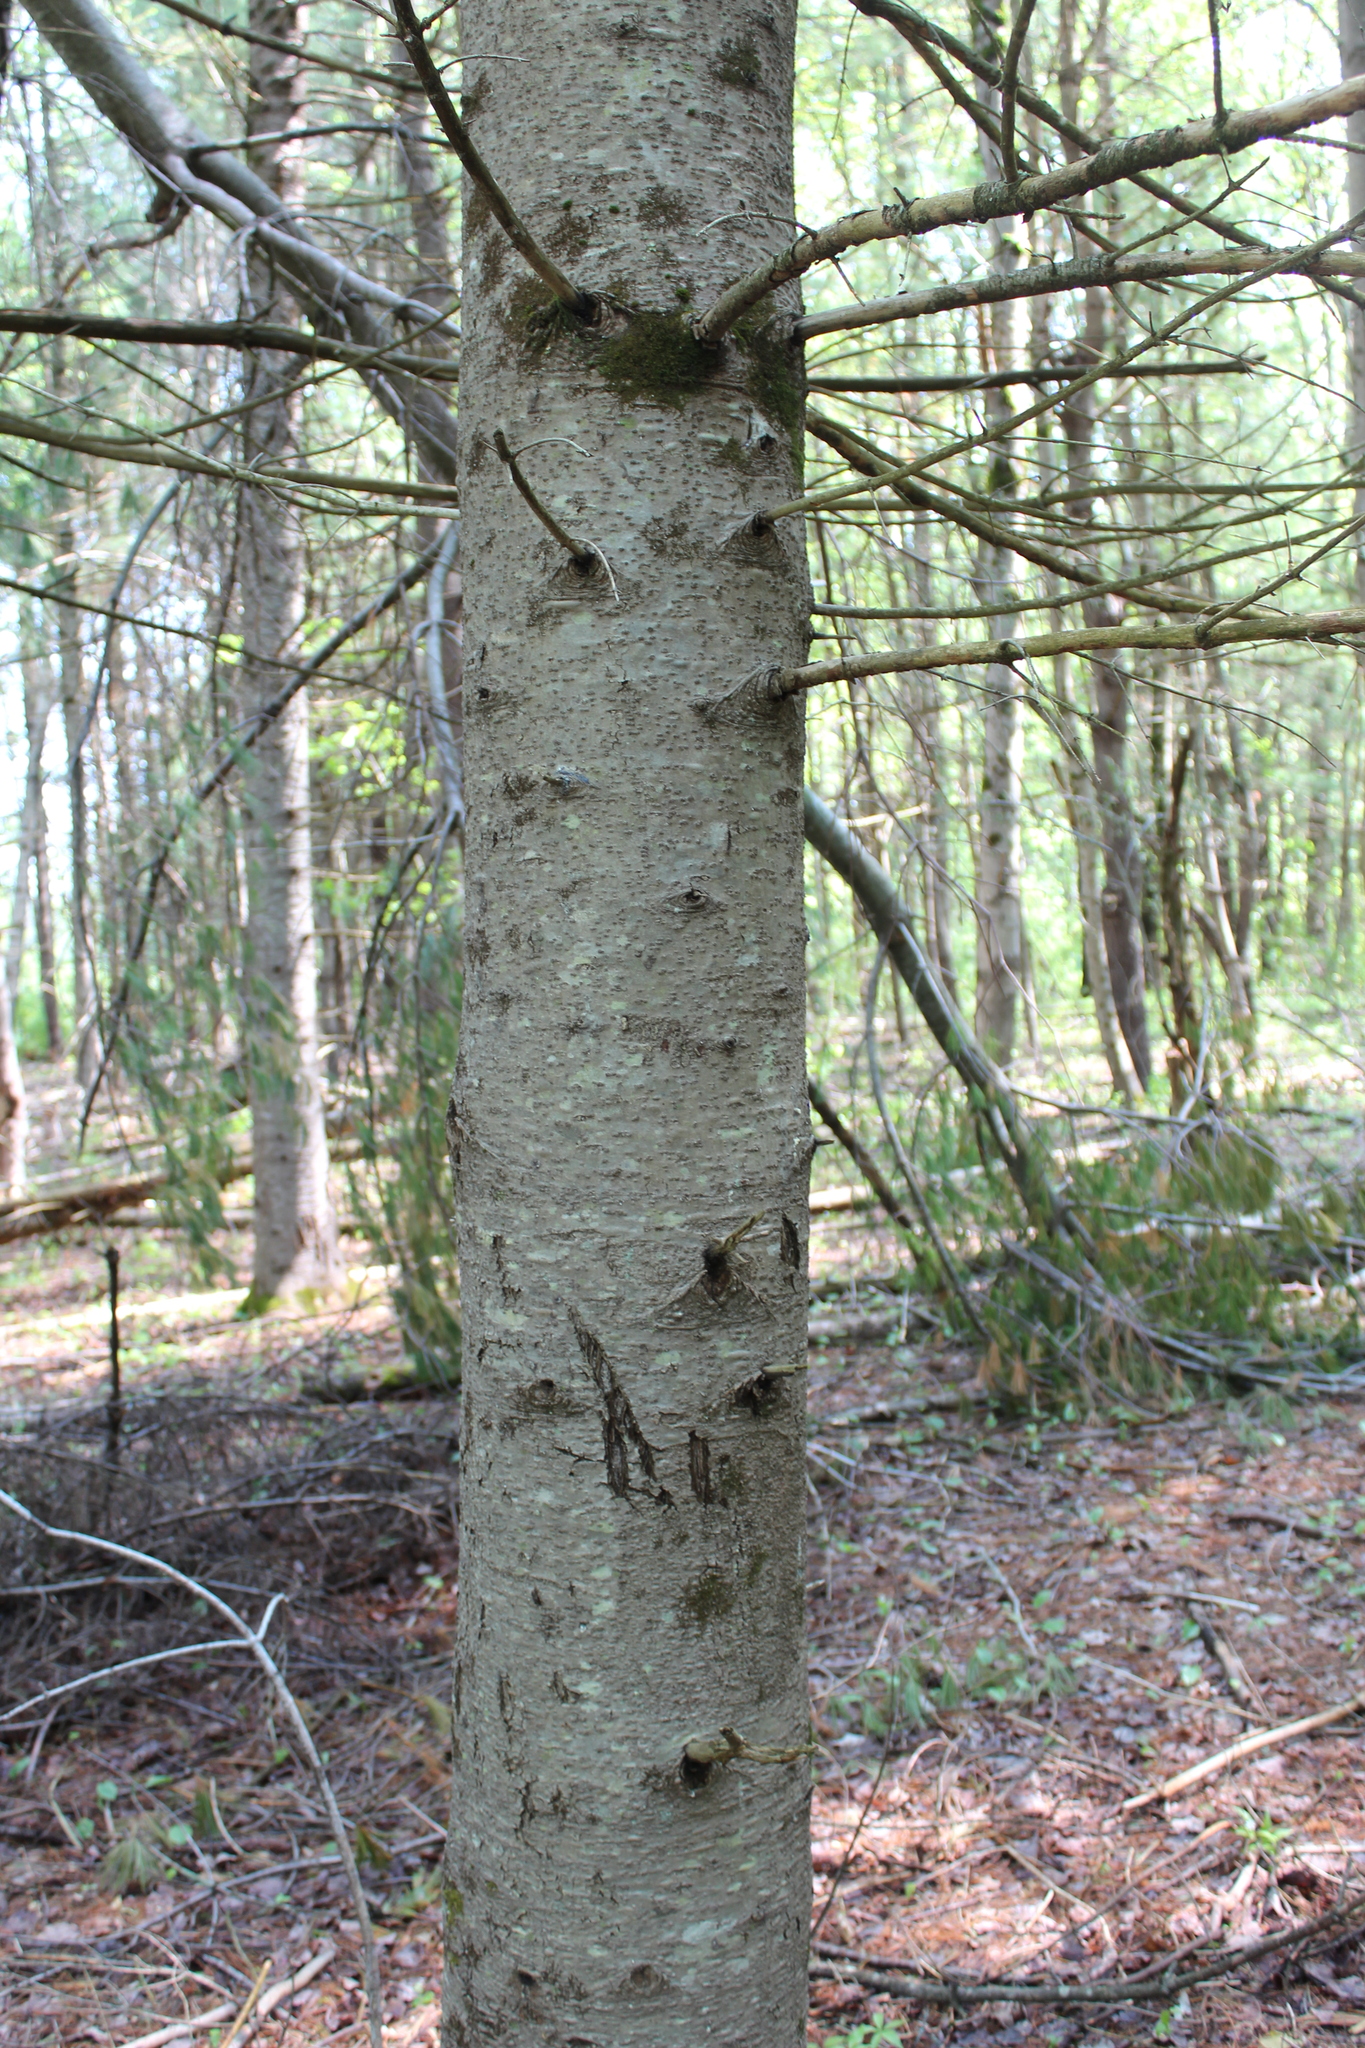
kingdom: Plantae
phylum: Tracheophyta
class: Pinopsida
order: Pinales
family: Pinaceae
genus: Abies
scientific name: Abies balsamea
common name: Balsam fir
